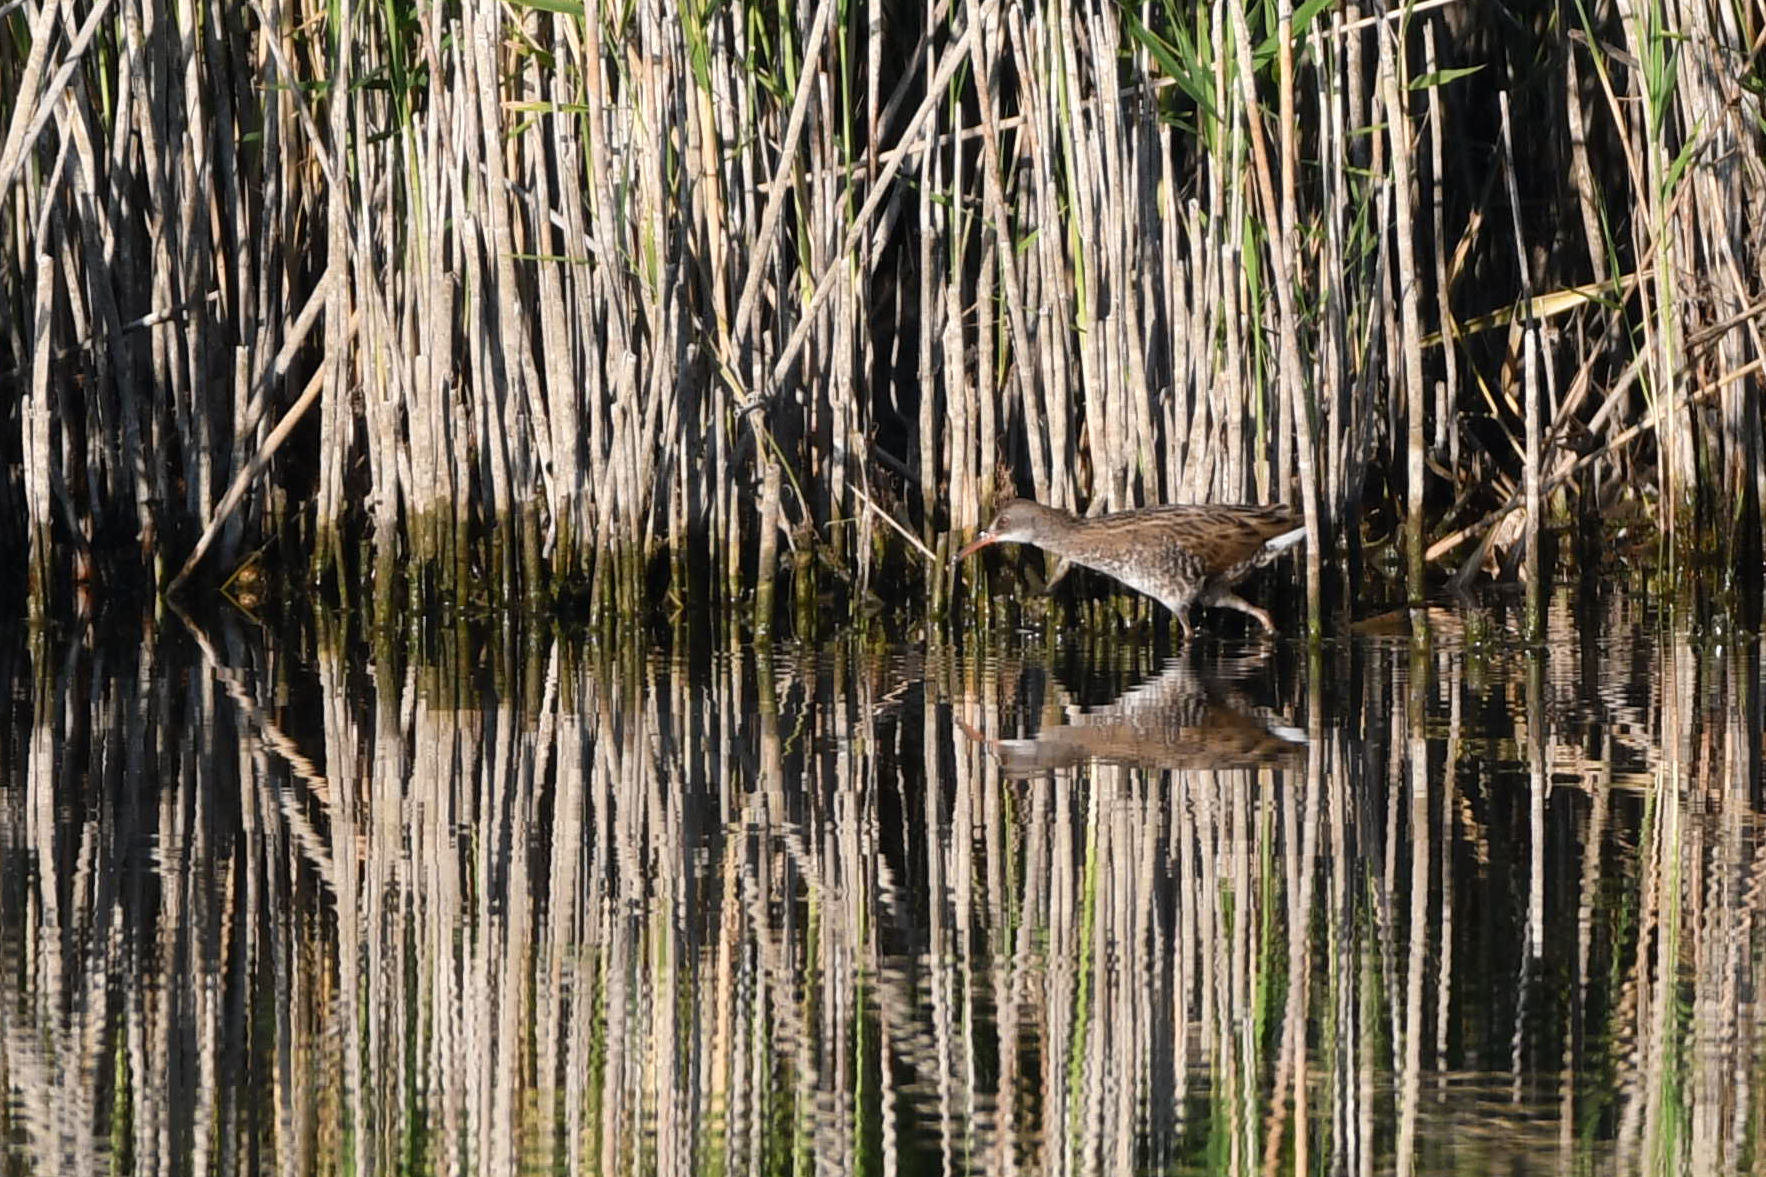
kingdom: Animalia
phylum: Chordata
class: Aves
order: Gruiformes
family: Rallidae
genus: Rallus
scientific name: Rallus aquaticus
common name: Water rail
